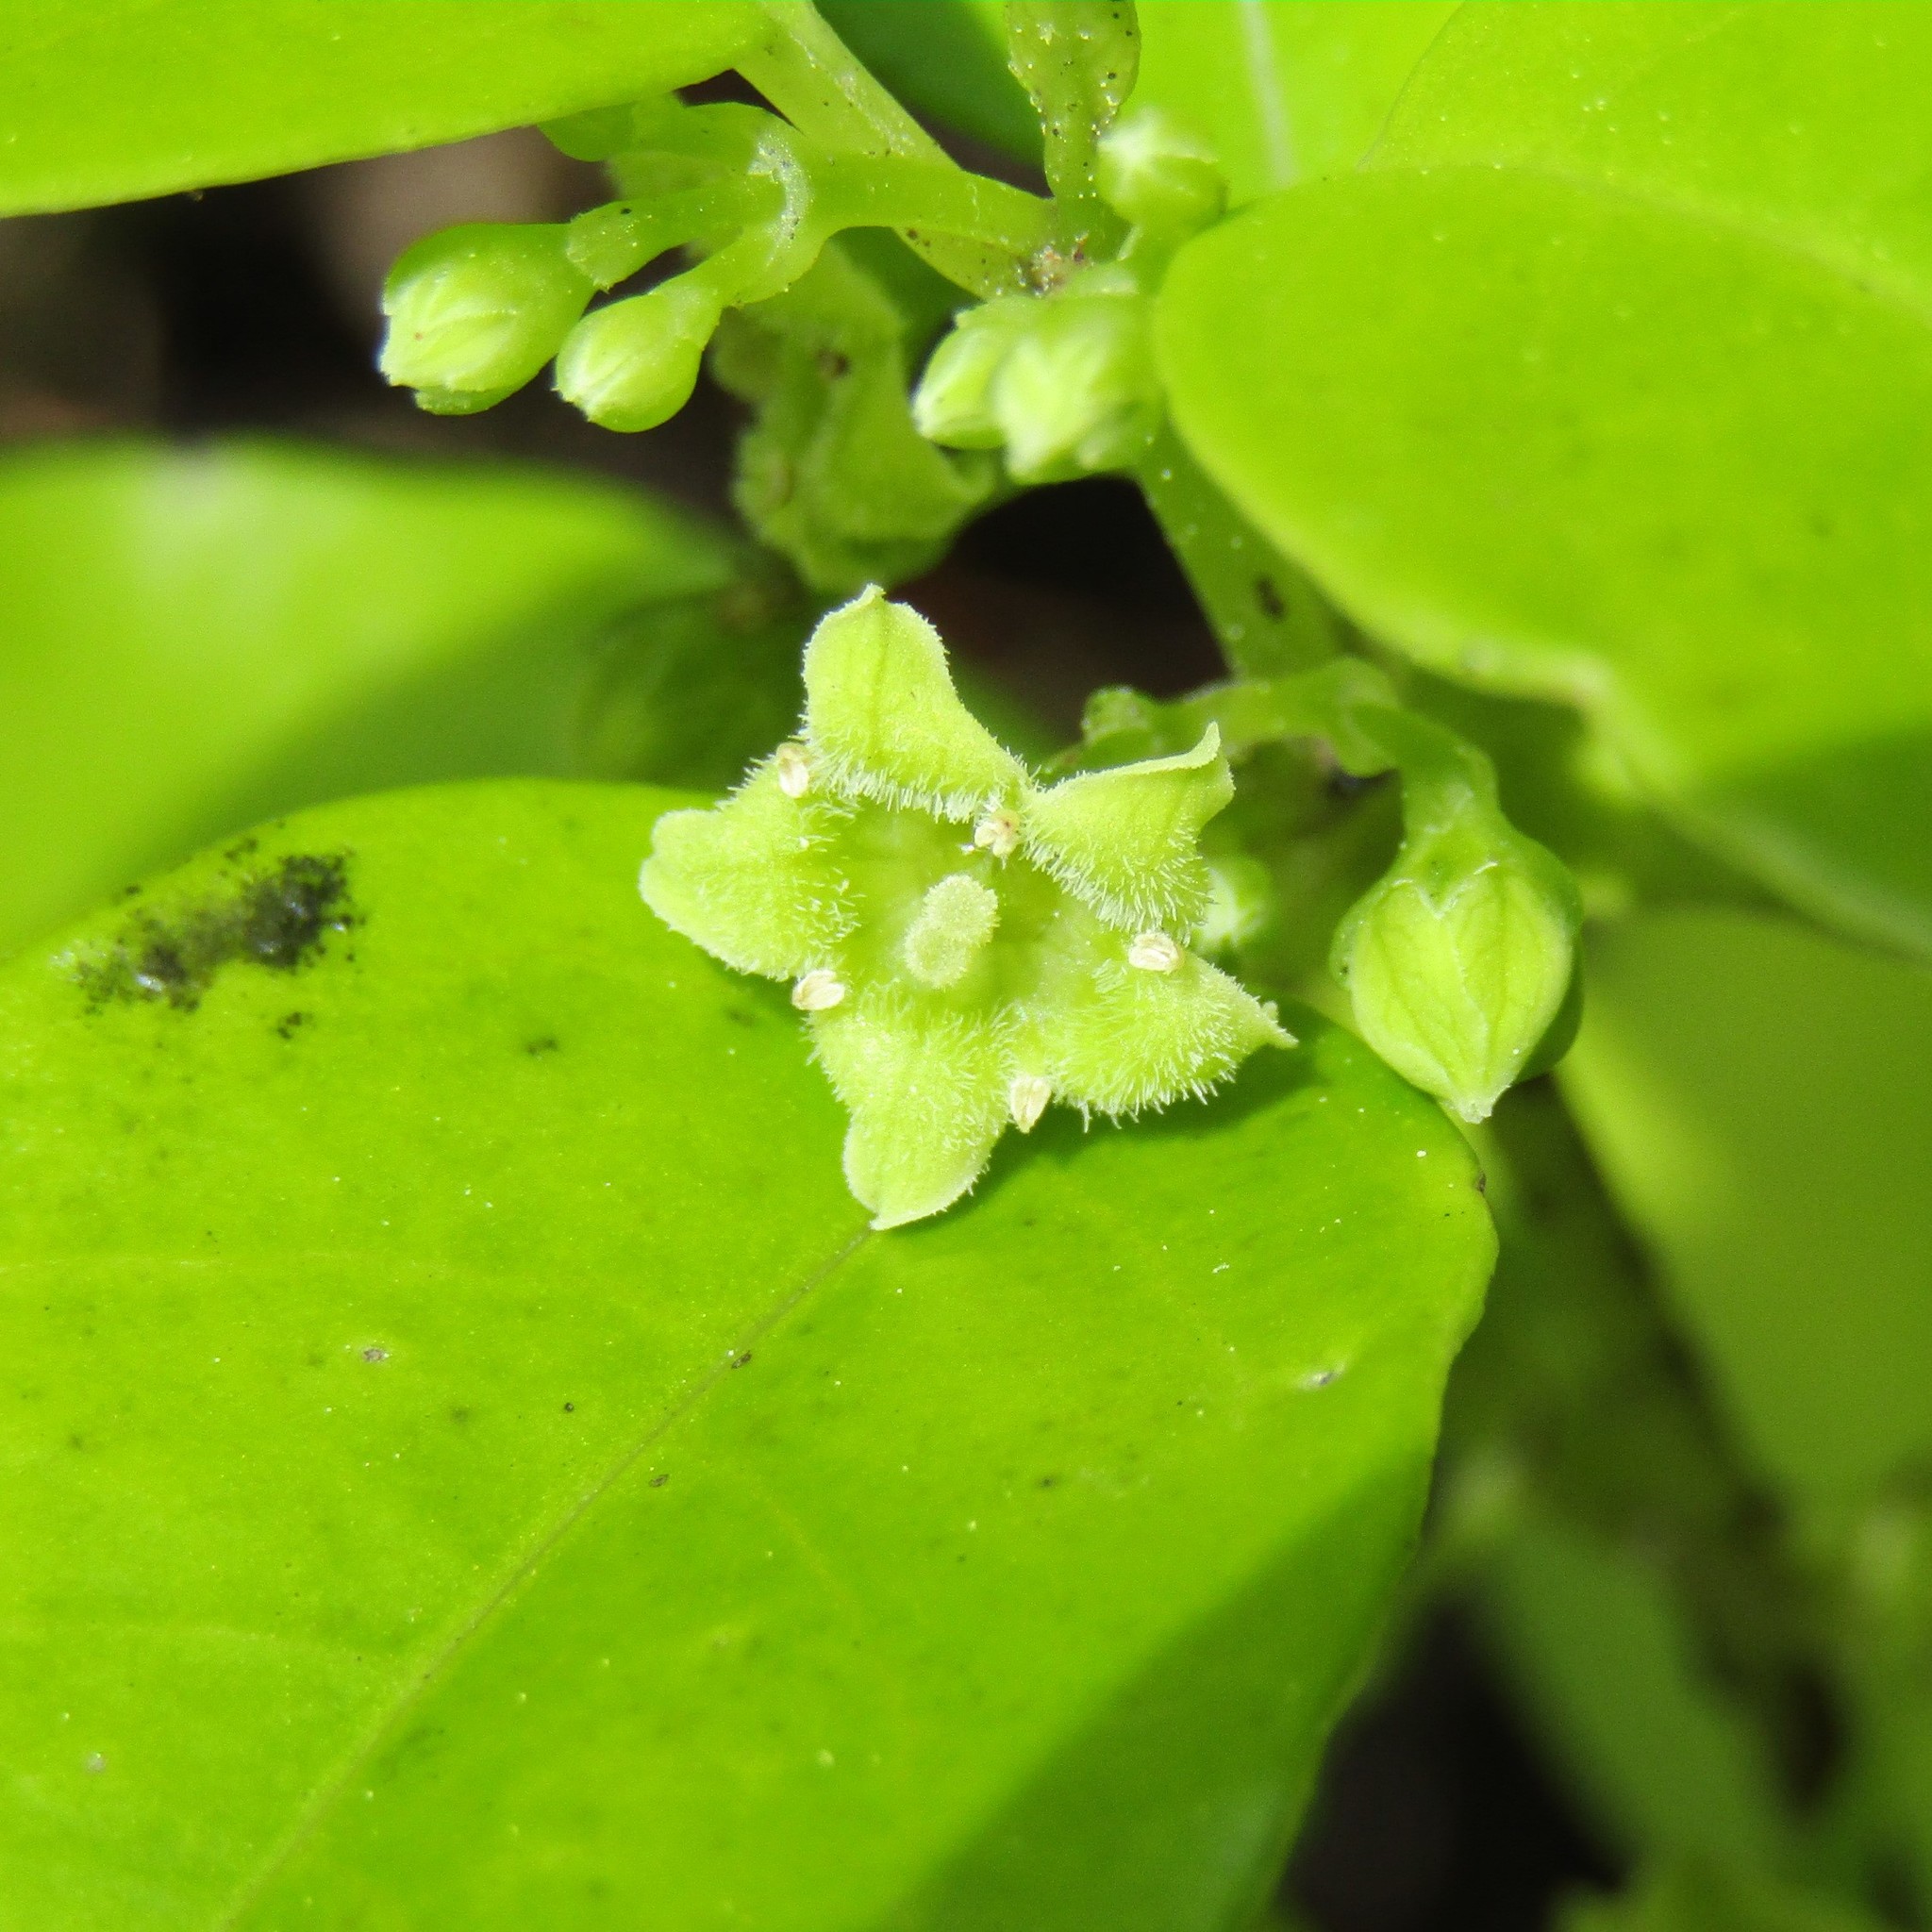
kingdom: Plantae
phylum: Tracheophyta
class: Magnoliopsida
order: Gentianales
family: Loganiaceae
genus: Geniostoma
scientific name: Geniostoma ligustrifolium
